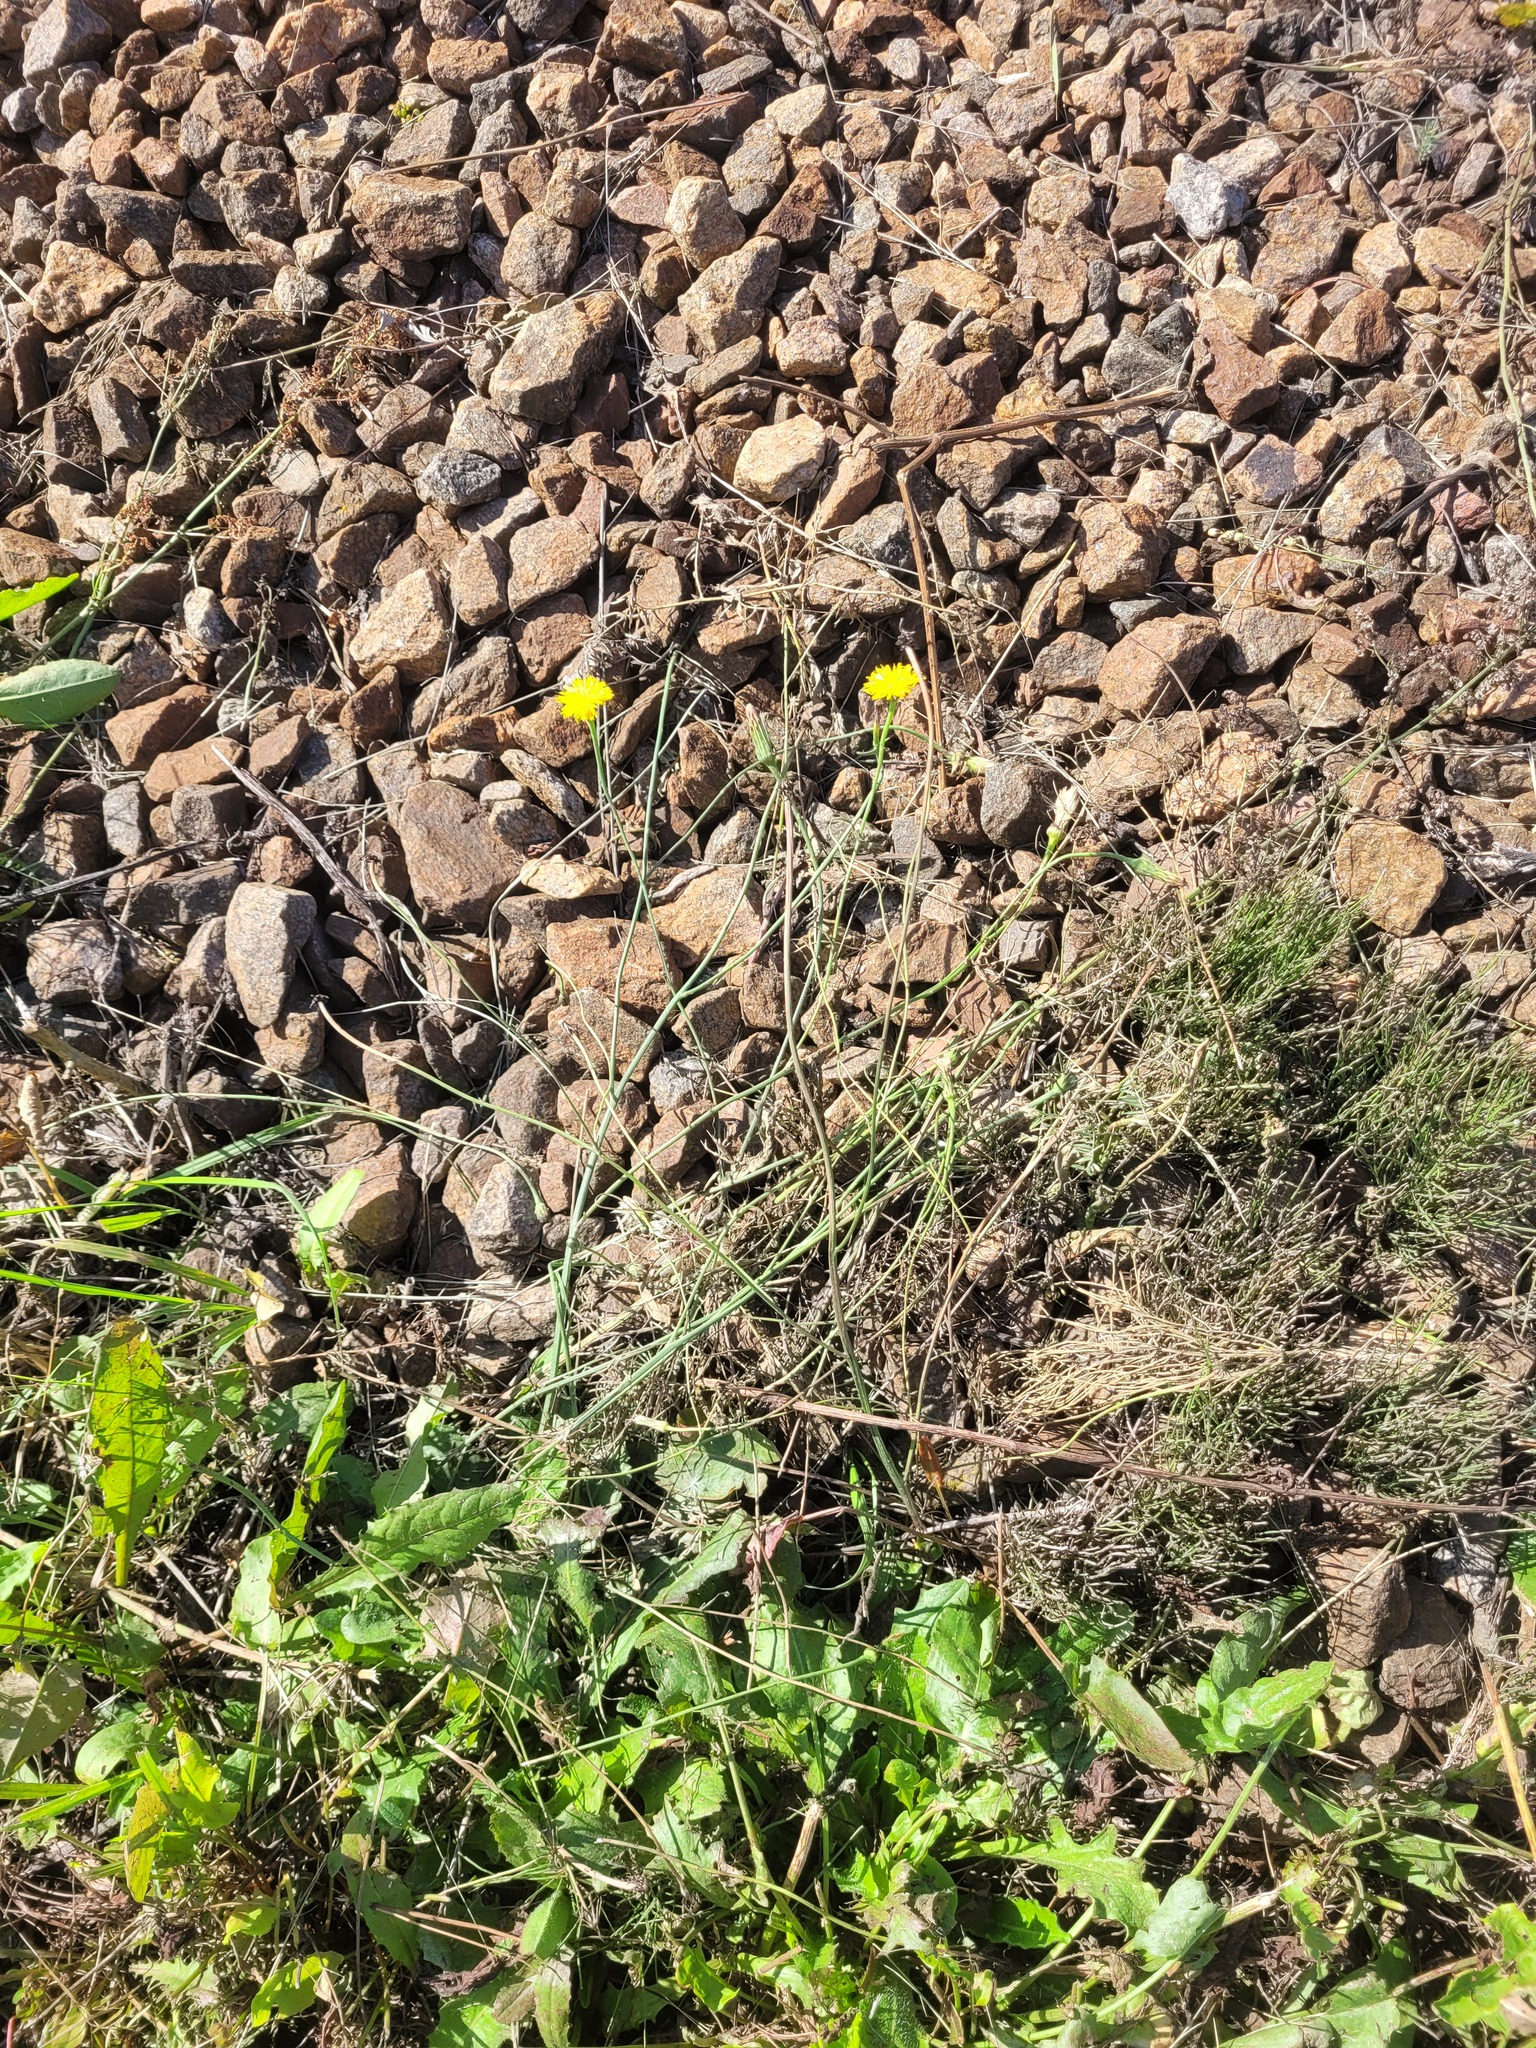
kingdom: Plantae
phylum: Tracheophyta
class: Magnoliopsida
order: Asterales
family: Asteraceae
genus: Hypochaeris
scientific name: Hypochaeris radicata
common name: Flatweed
